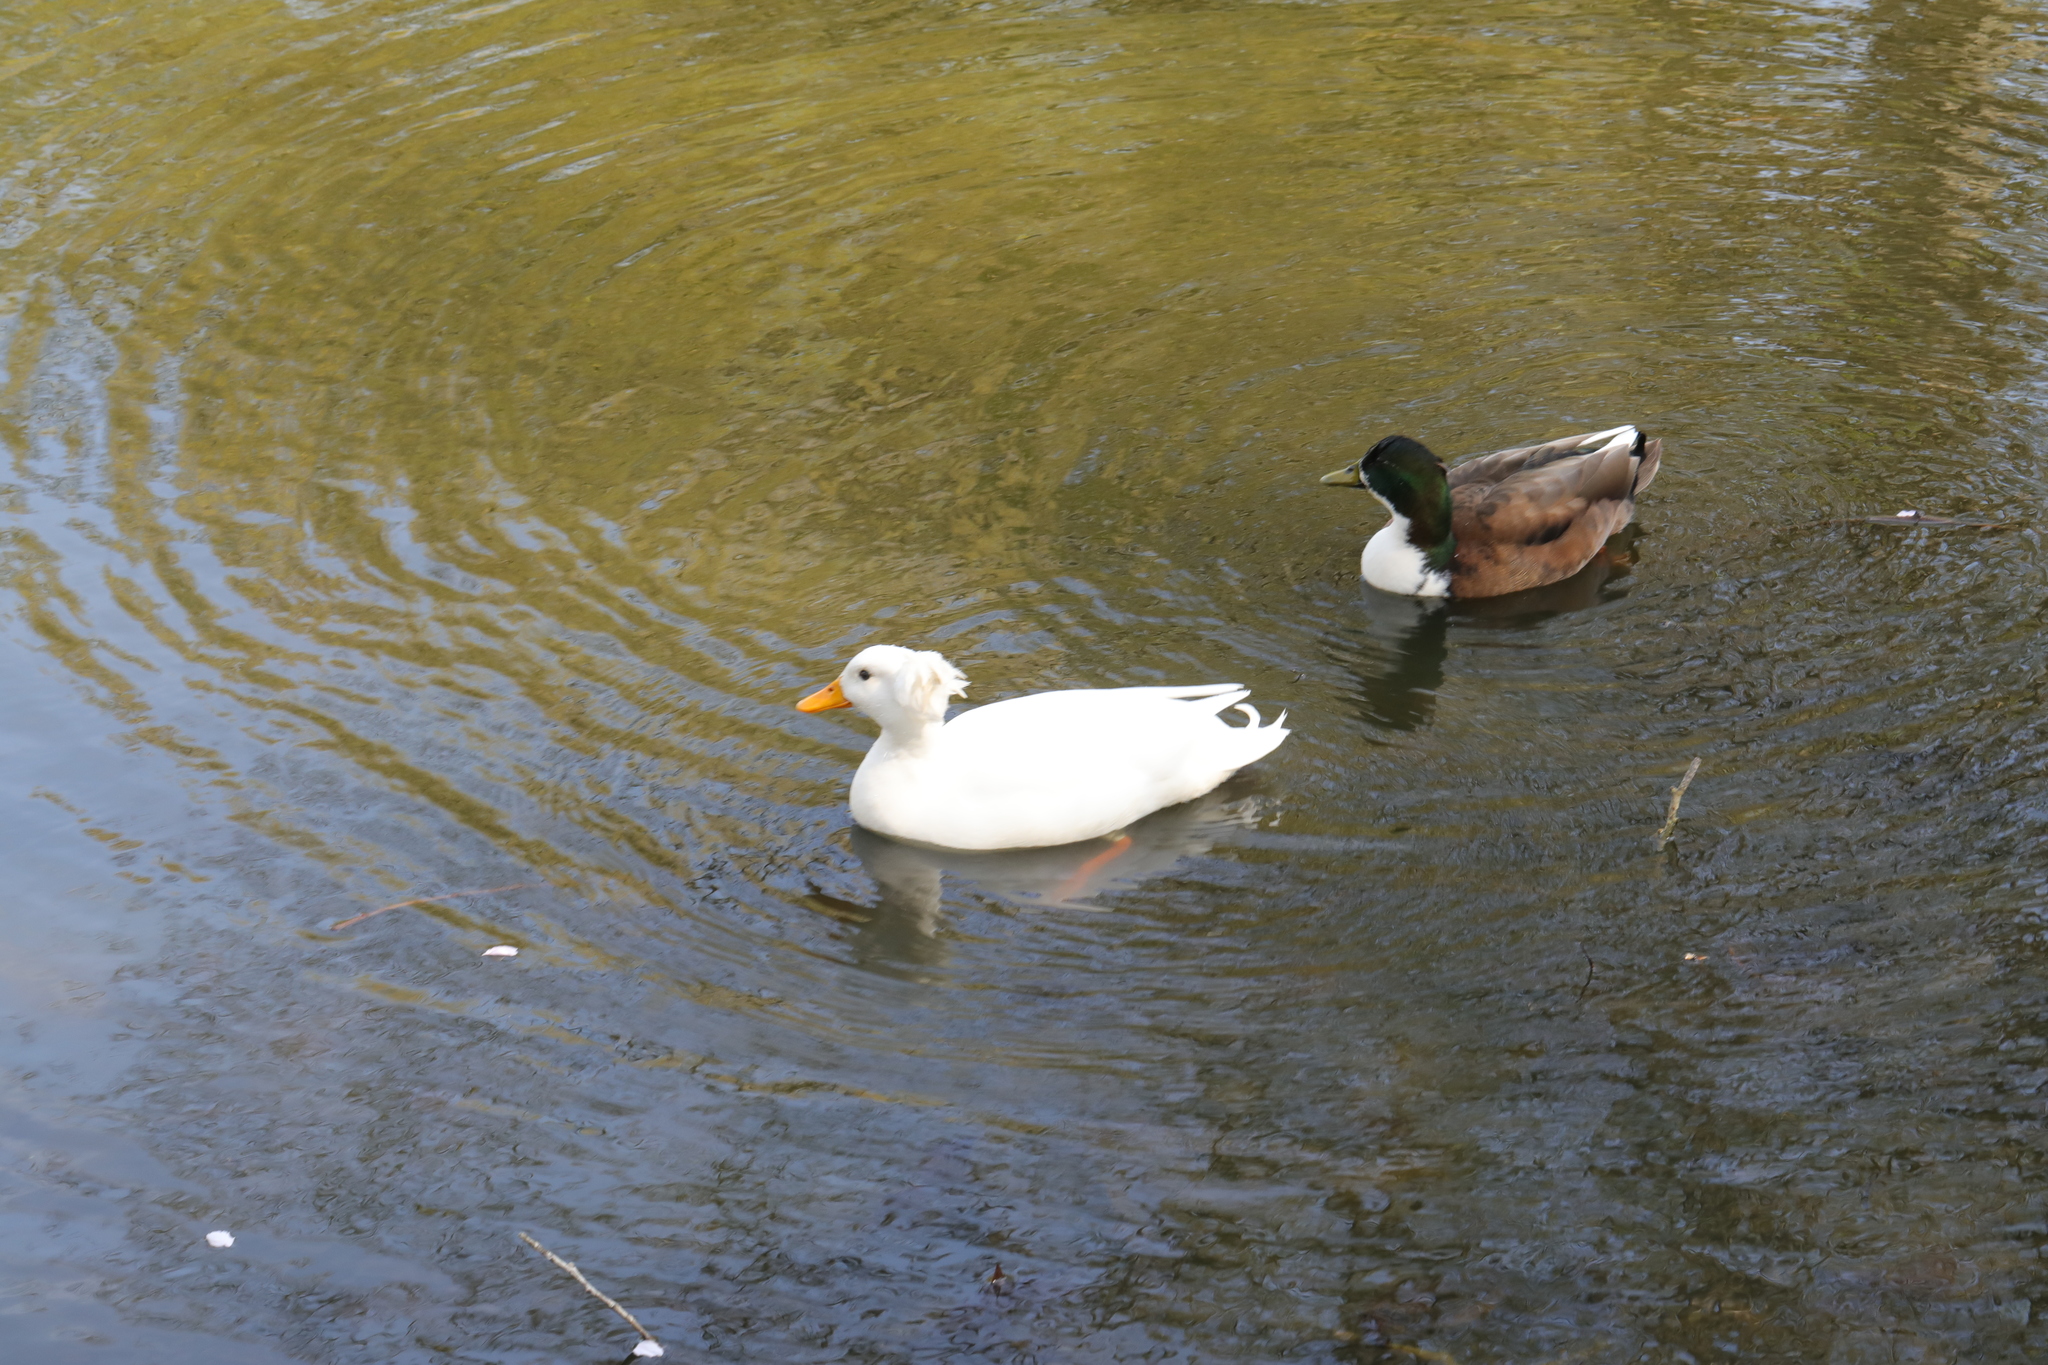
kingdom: Animalia
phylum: Chordata
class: Aves
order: Anseriformes
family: Anatidae
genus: Anas
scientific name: Anas platyrhynchos
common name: Mallard
